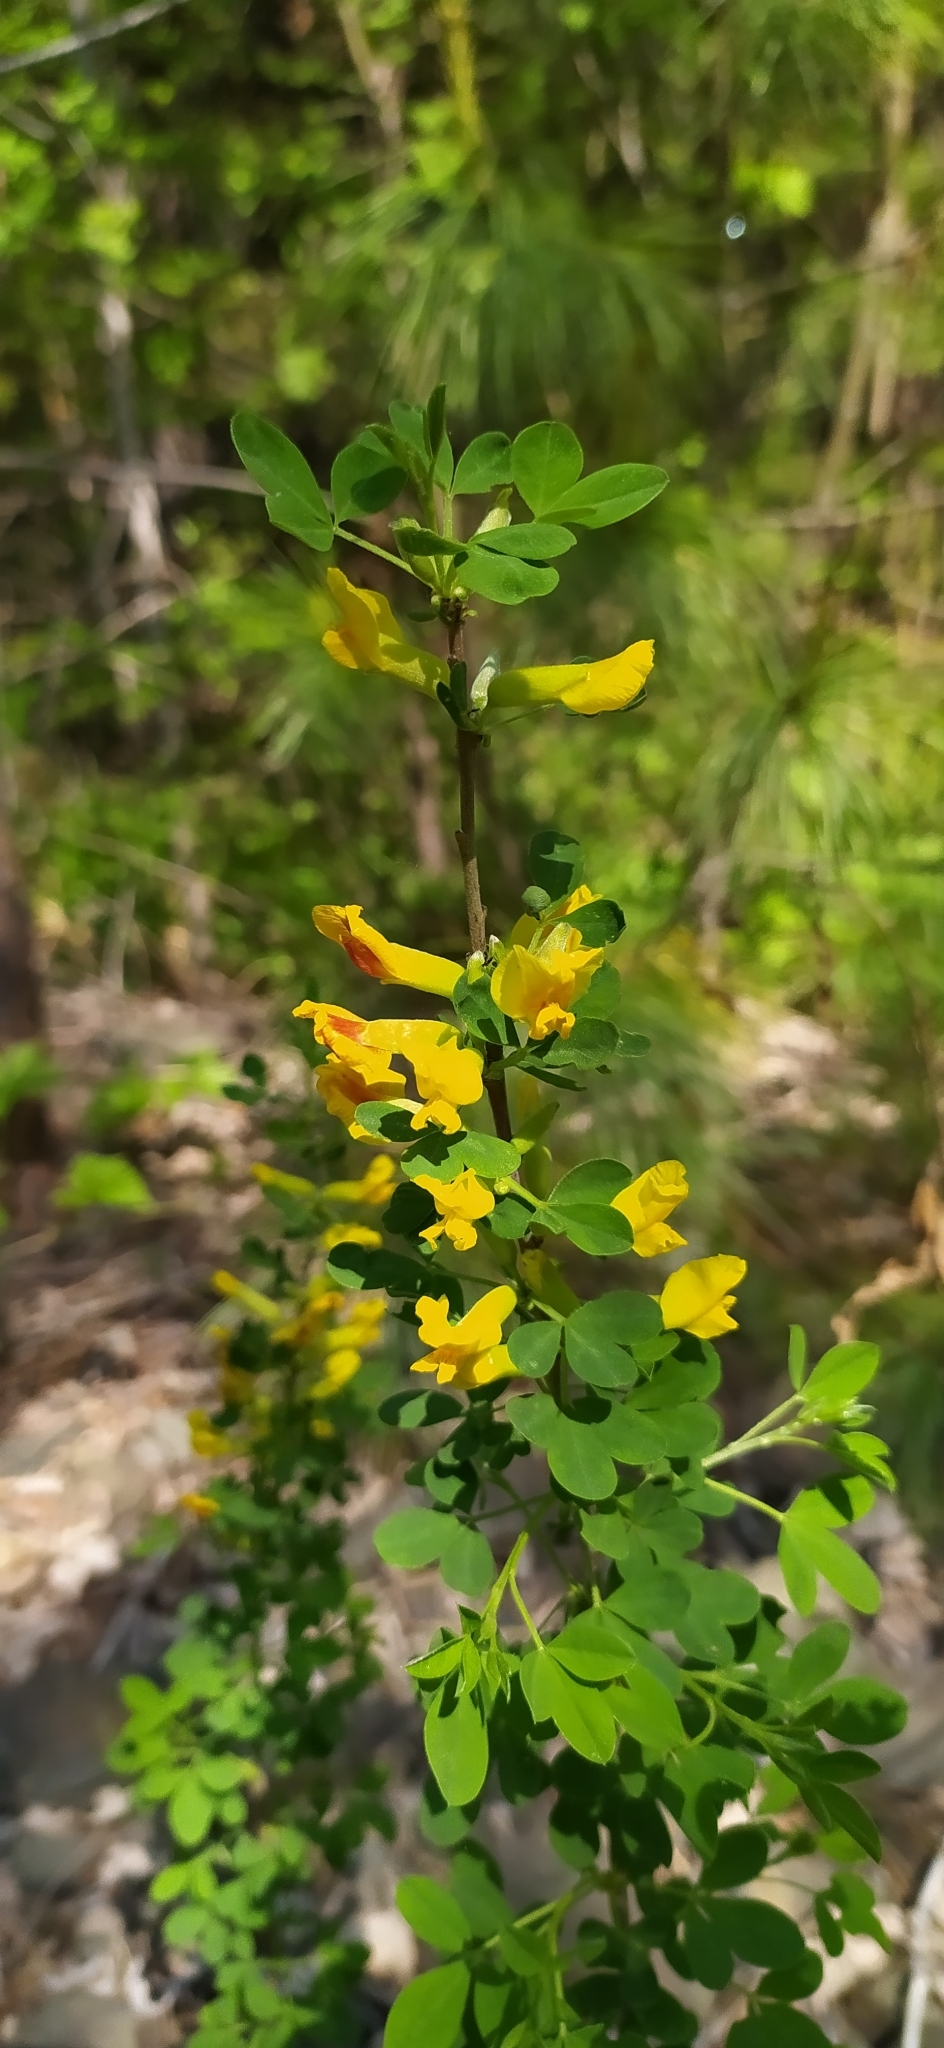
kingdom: Plantae
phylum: Tracheophyta
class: Magnoliopsida
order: Fabales
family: Fabaceae
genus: Chamaecytisus
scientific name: Chamaecytisus ruthenicus
